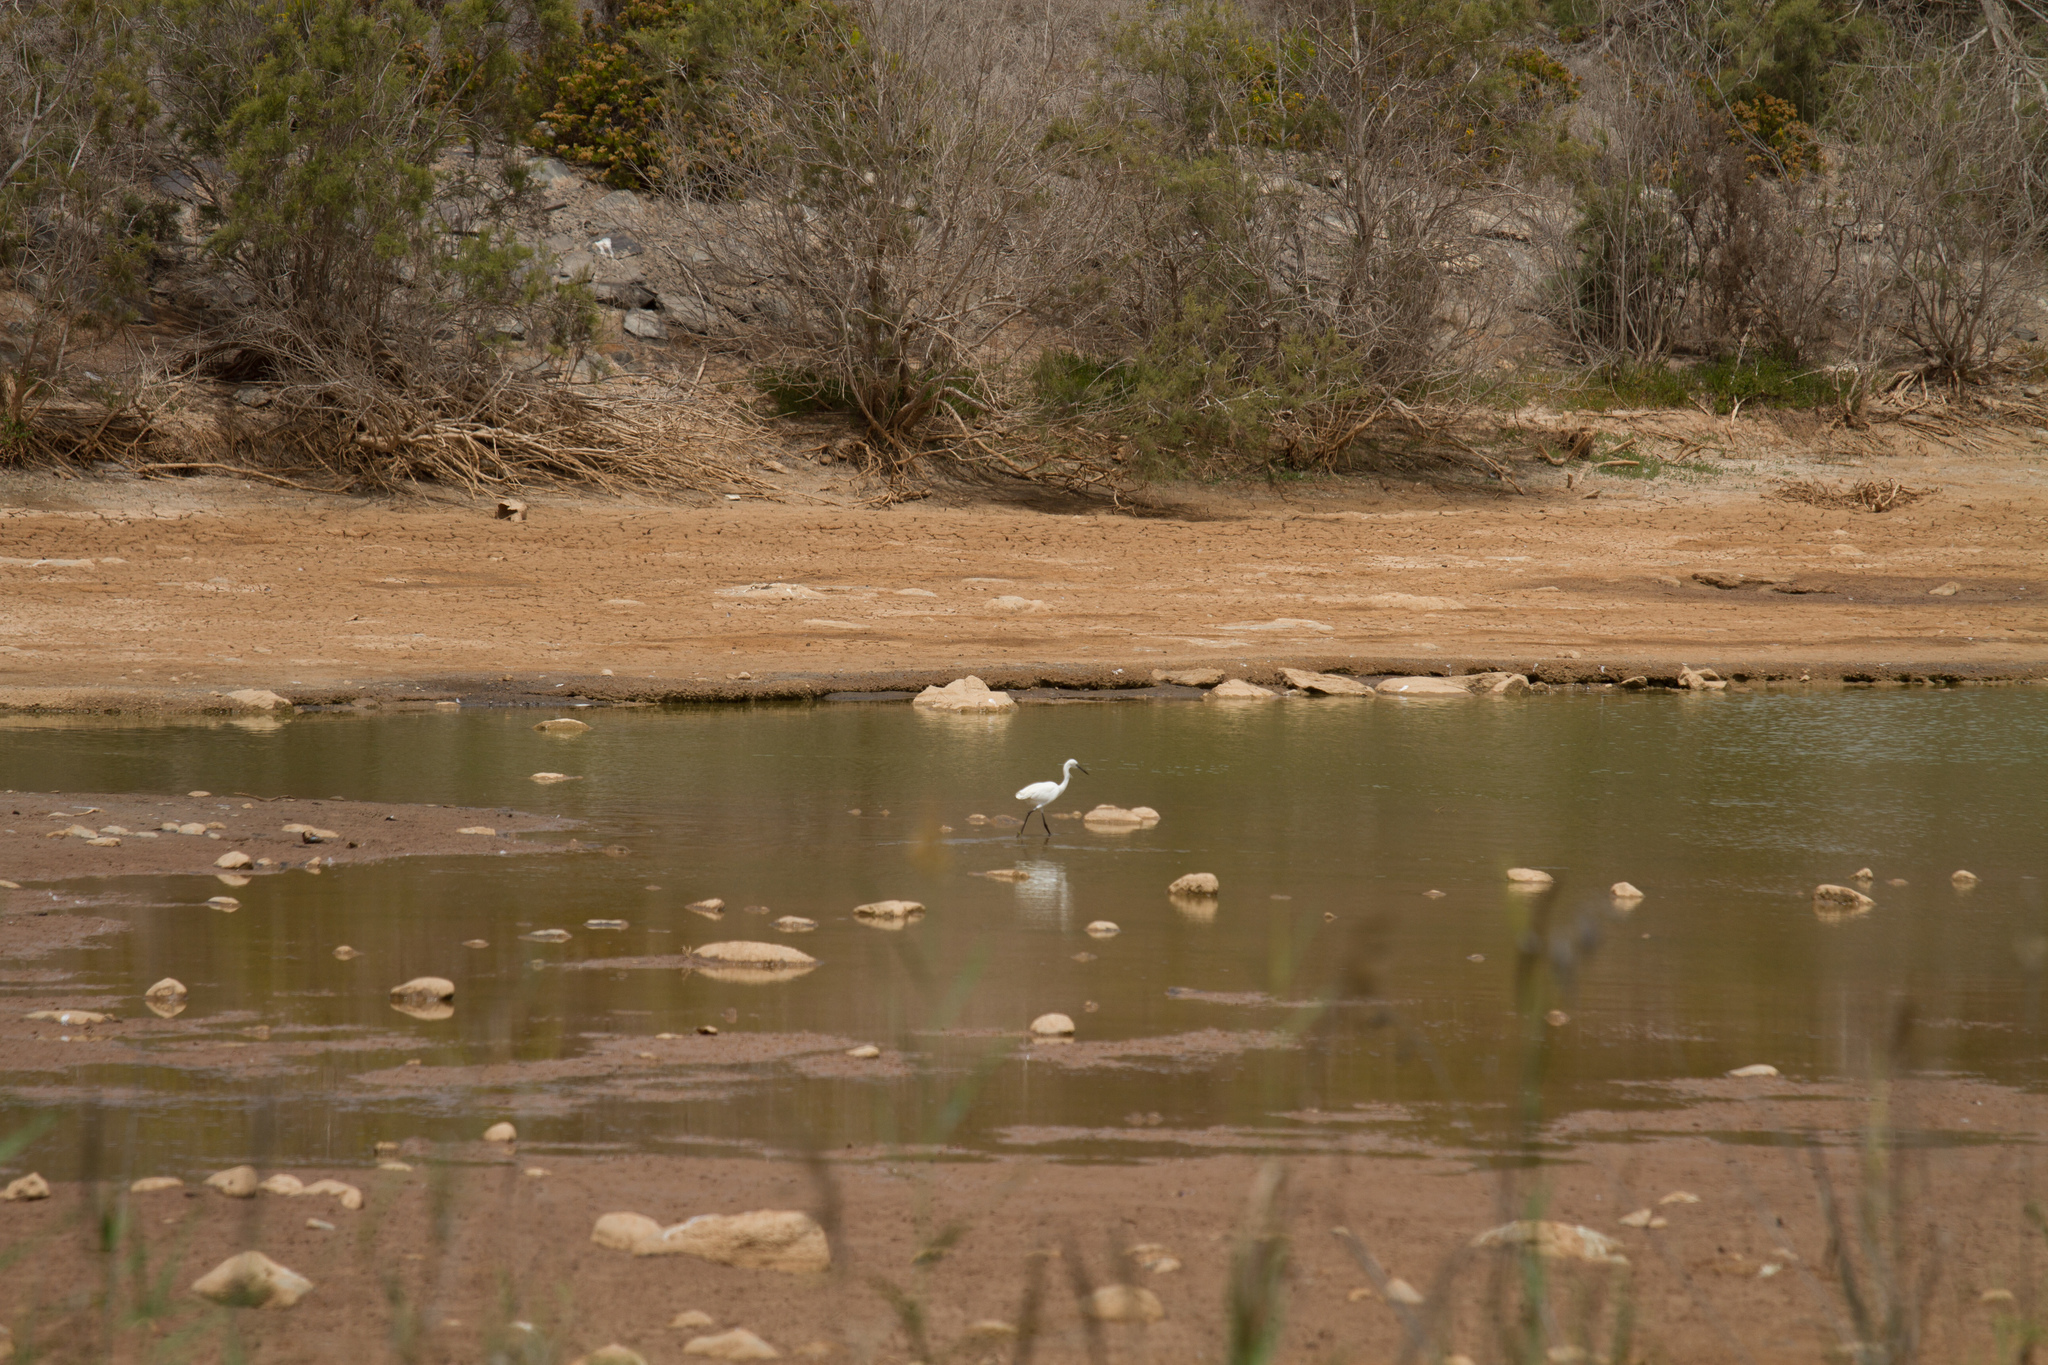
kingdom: Animalia
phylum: Chordata
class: Aves
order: Pelecaniformes
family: Ardeidae
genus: Egretta
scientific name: Egretta garzetta
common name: Little egret
